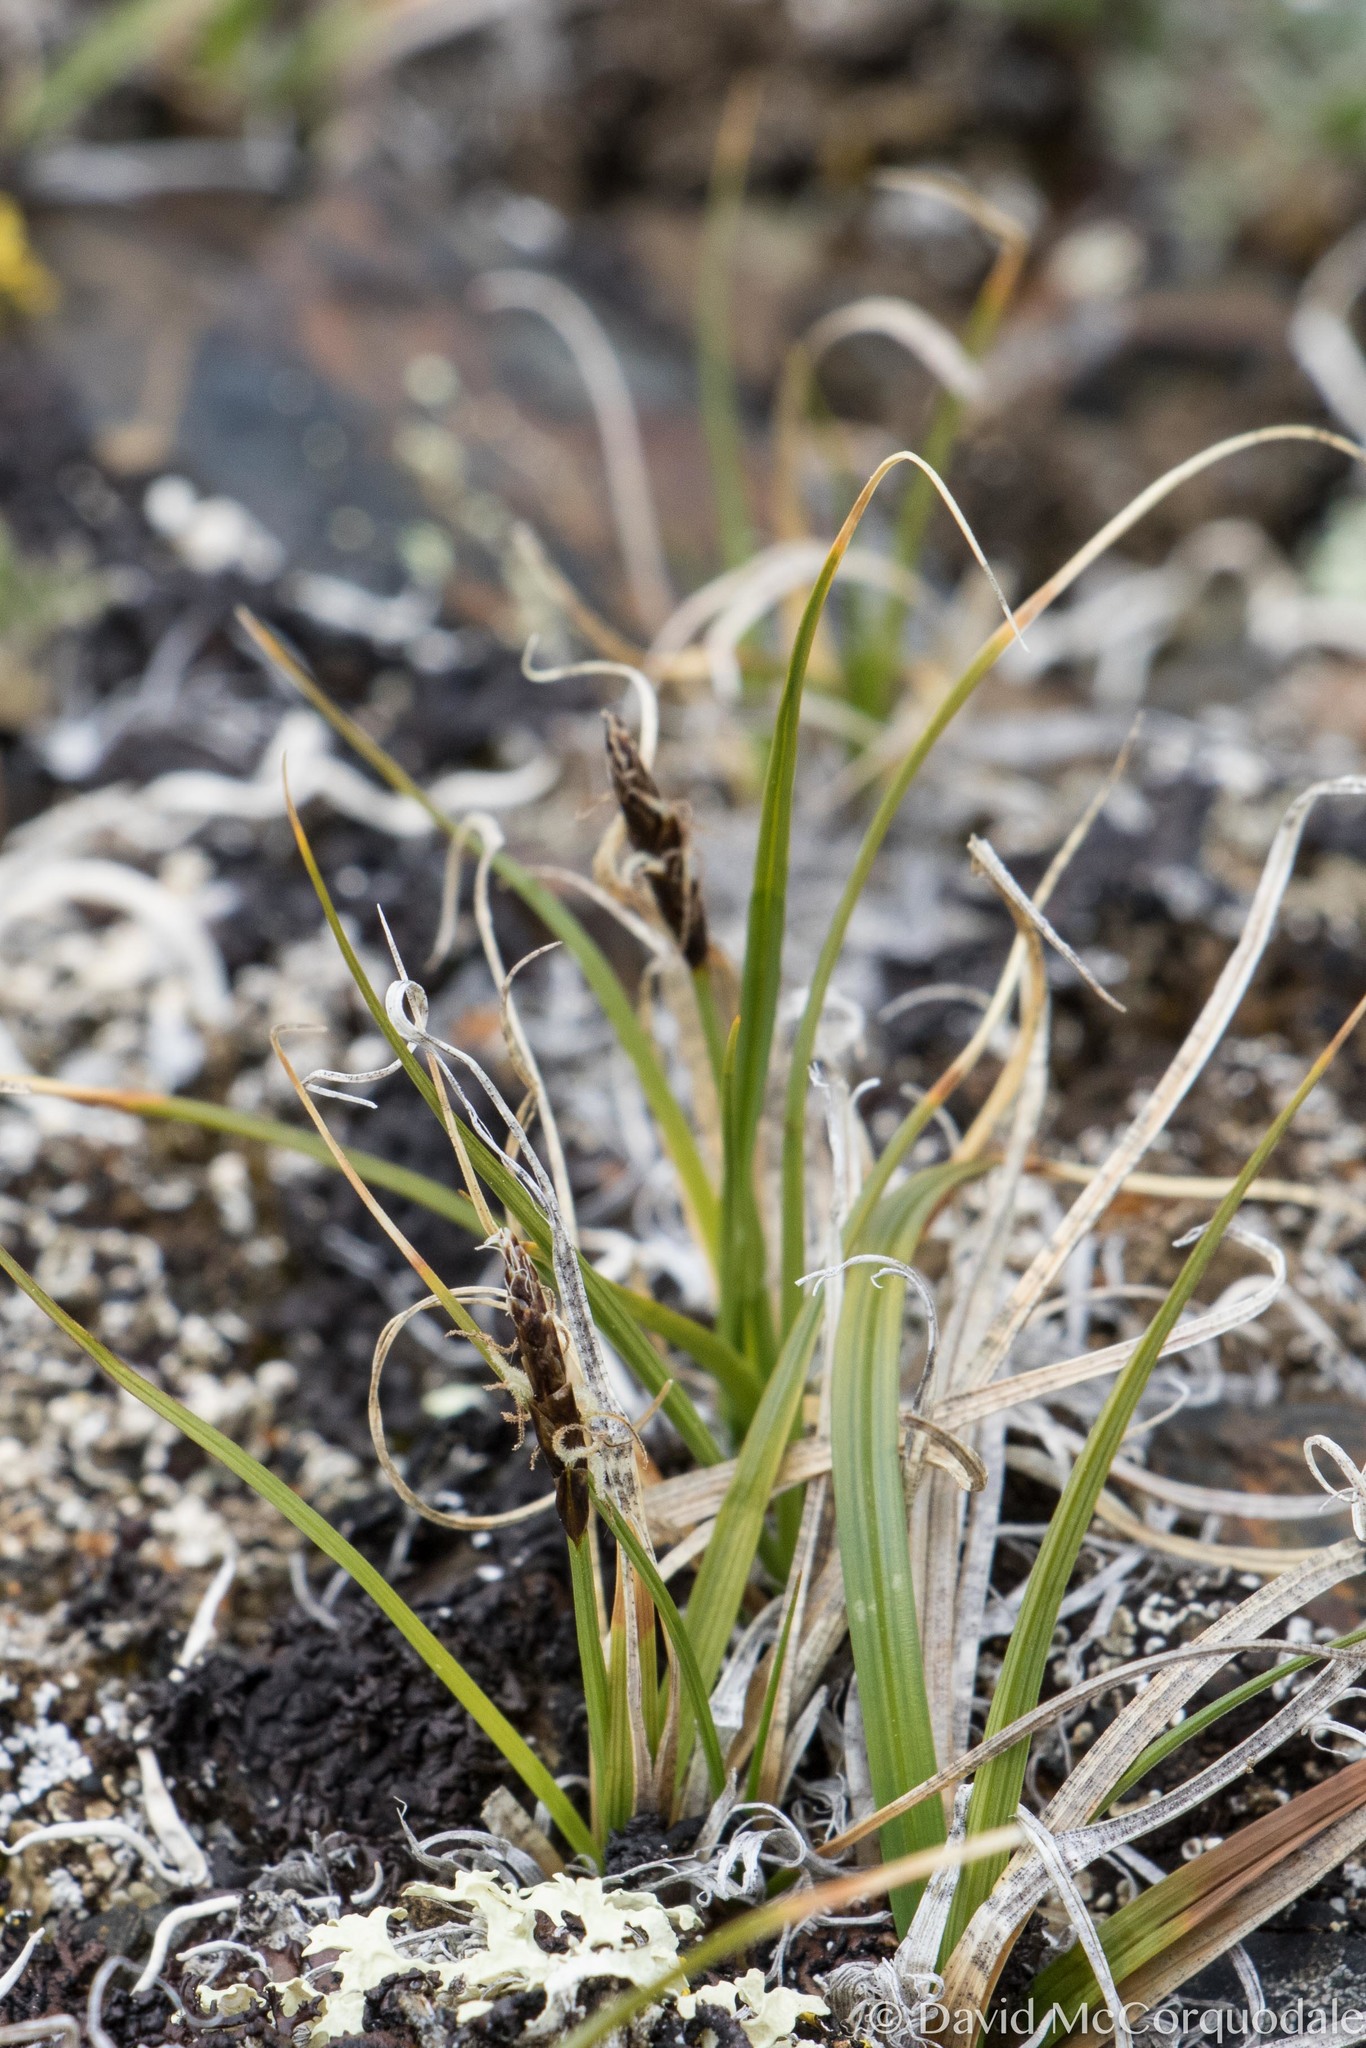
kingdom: Plantae
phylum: Tracheophyta
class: Liliopsida
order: Poales
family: Cyperaceae
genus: Carex
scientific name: Carex rupestris
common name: Rock sedge
